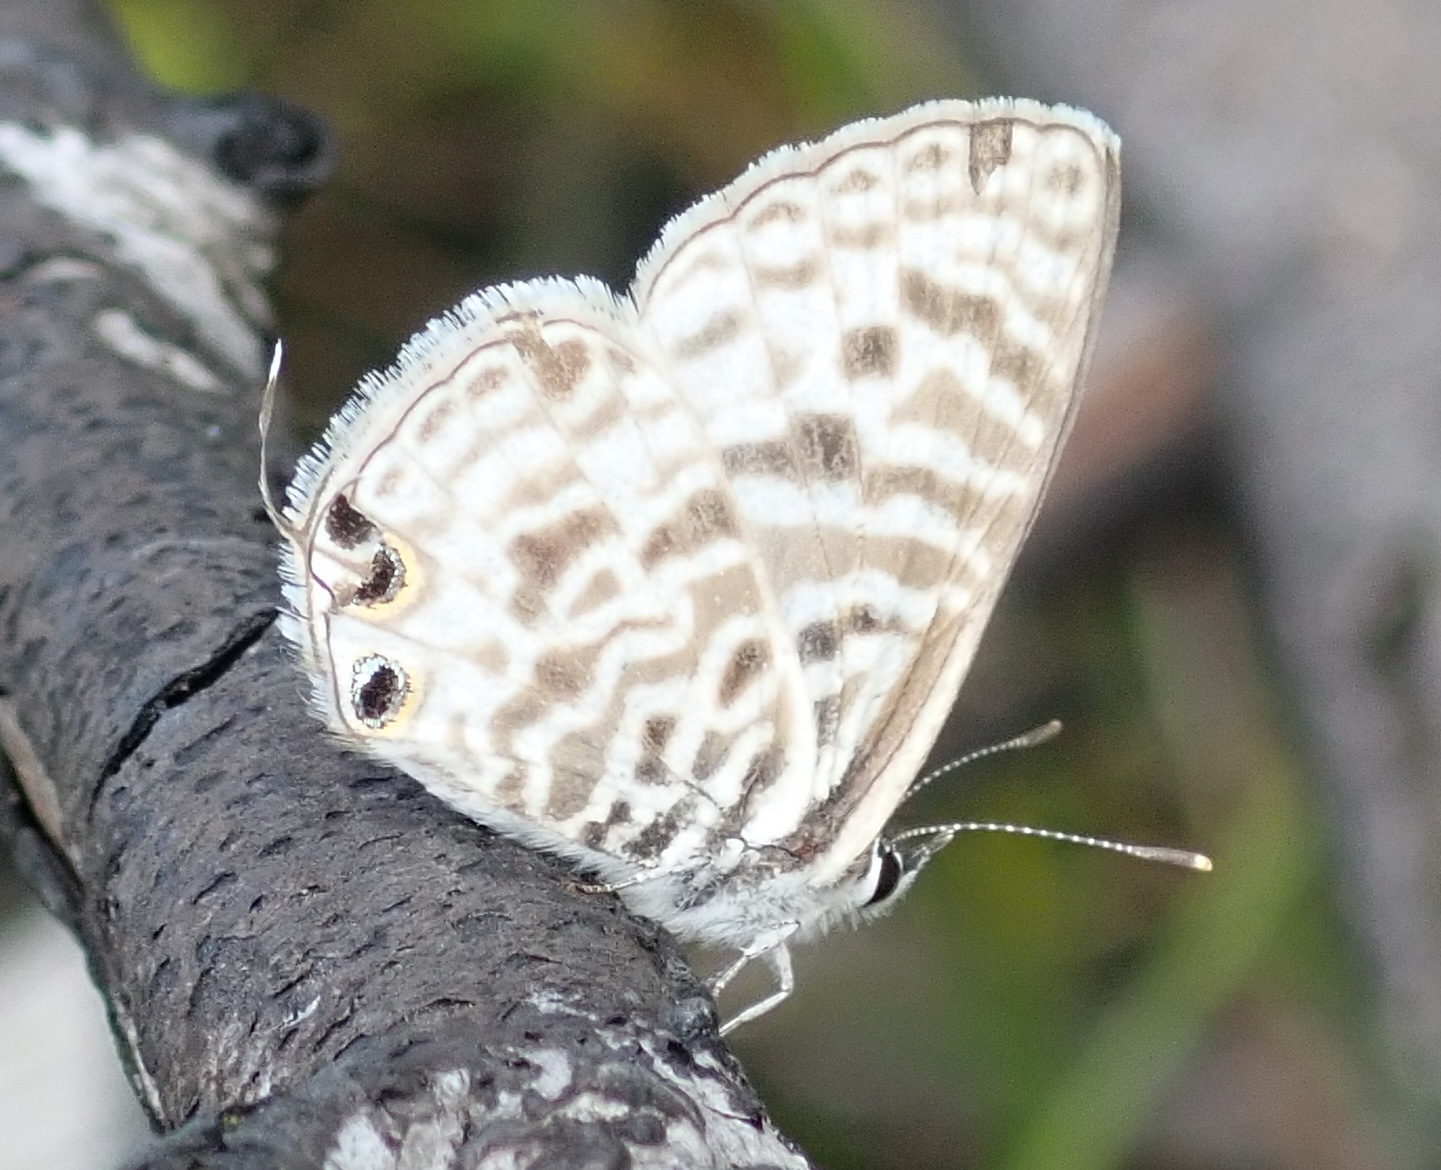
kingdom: Animalia
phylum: Arthropoda
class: Insecta
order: Lepidoptera
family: Lycaenidae
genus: Leptotes
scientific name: Leptotes
